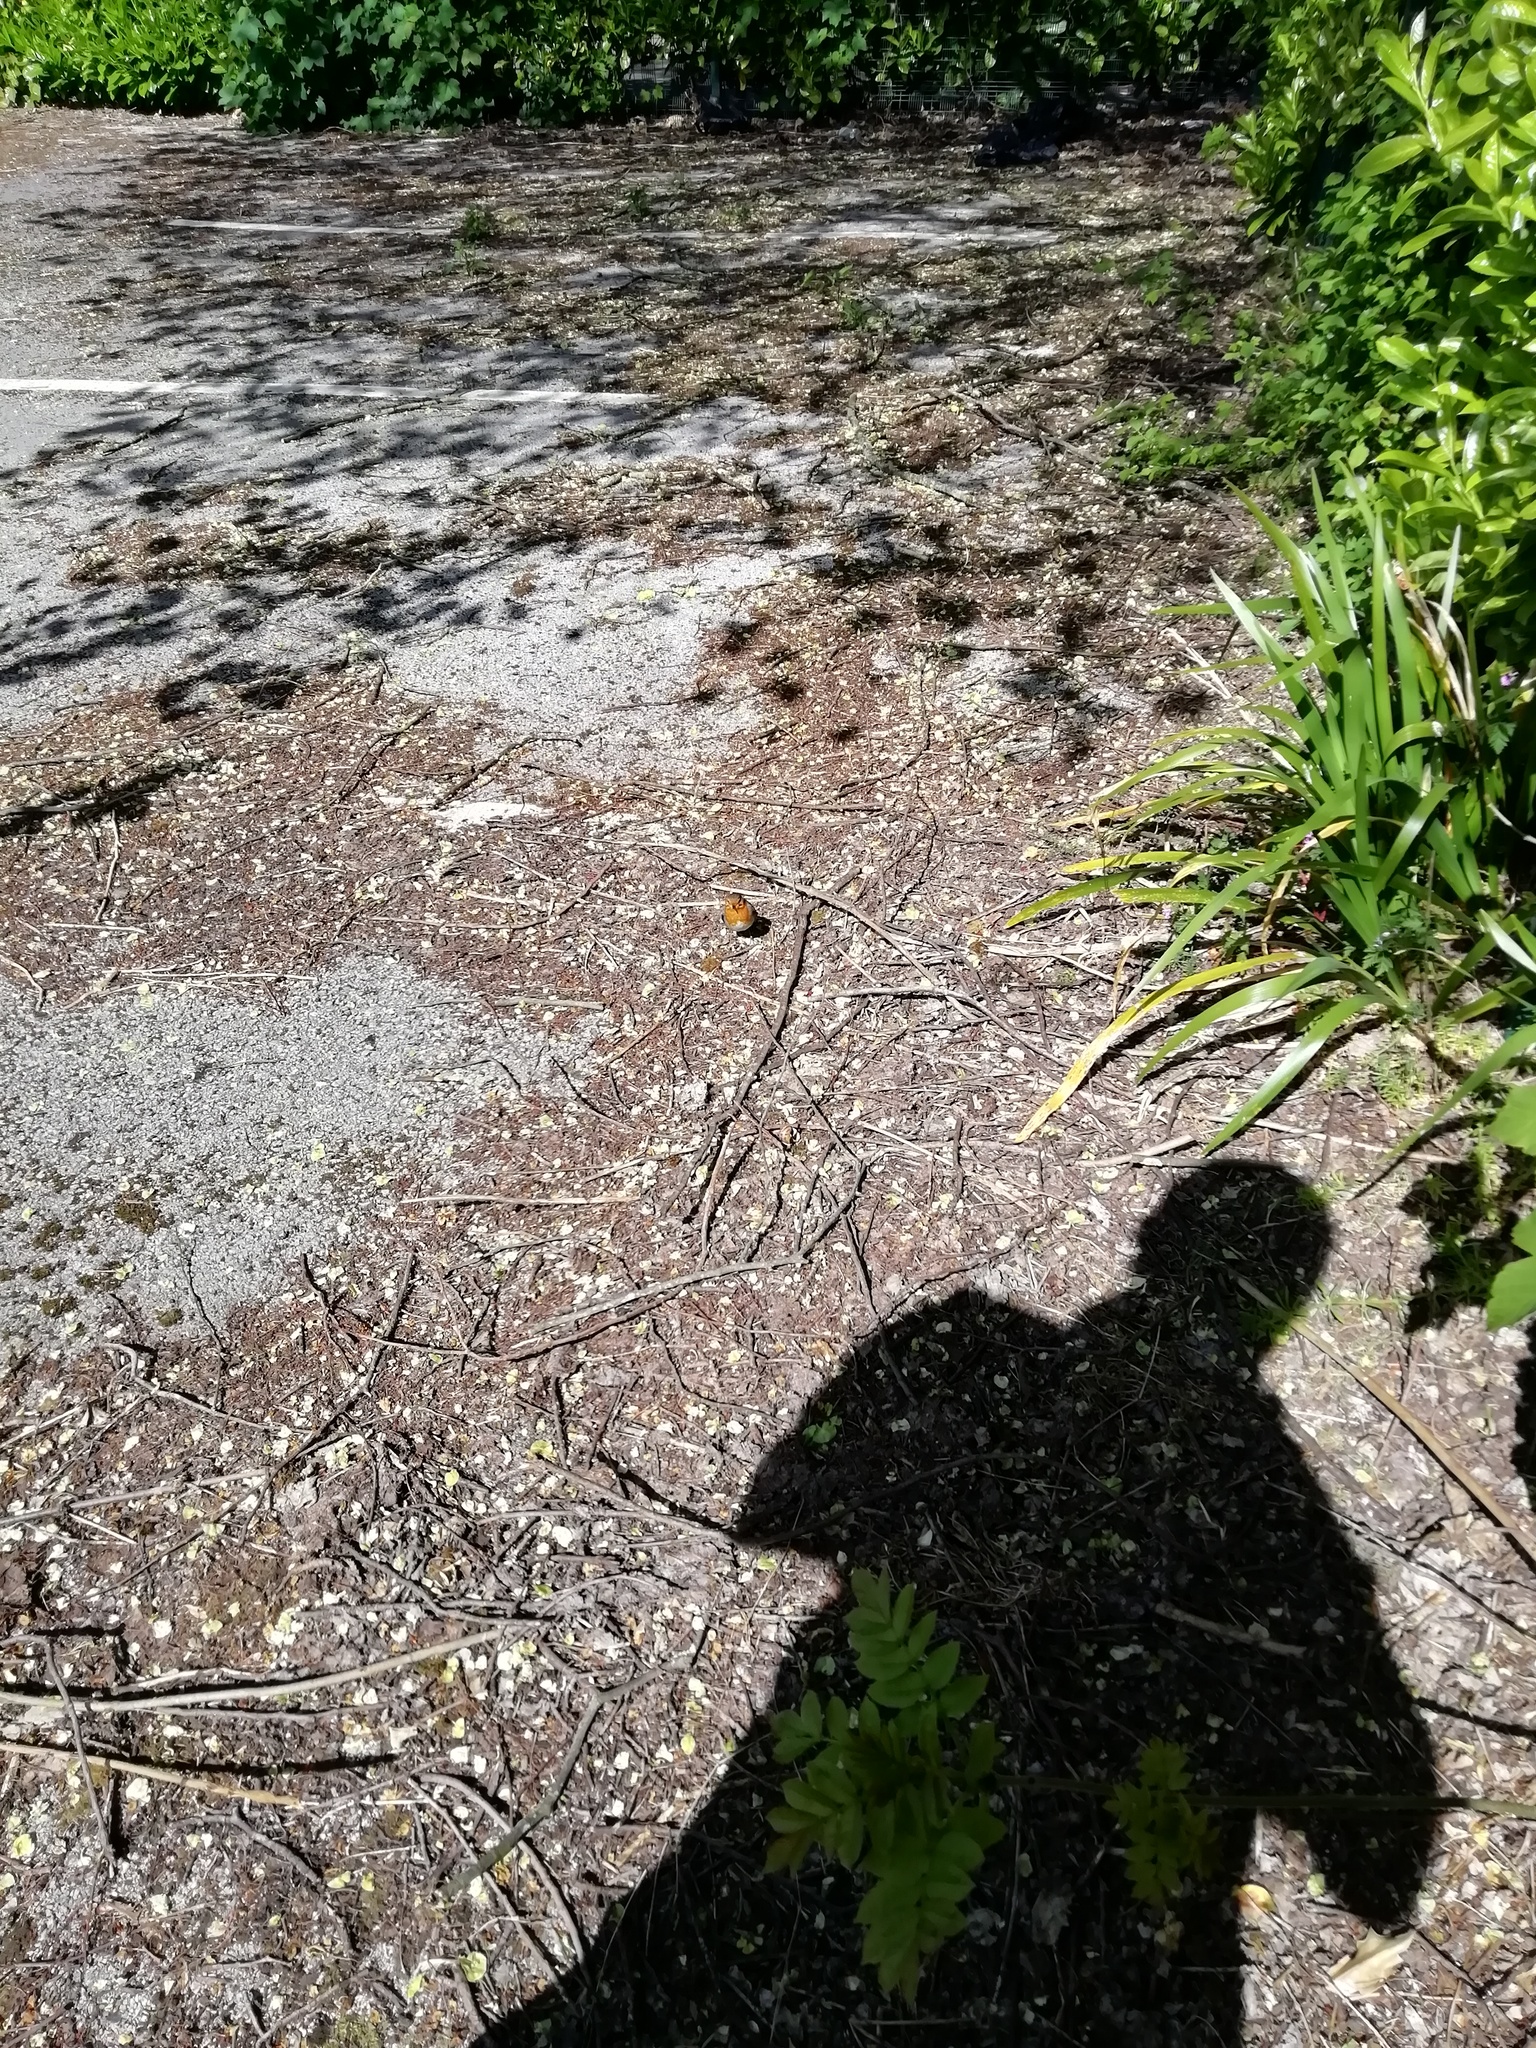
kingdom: Animalia
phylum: Chordata
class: Aves
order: Passeriformes
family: Muscicapidae
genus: Erithacus
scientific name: Erithacus rubecula
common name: European robin
